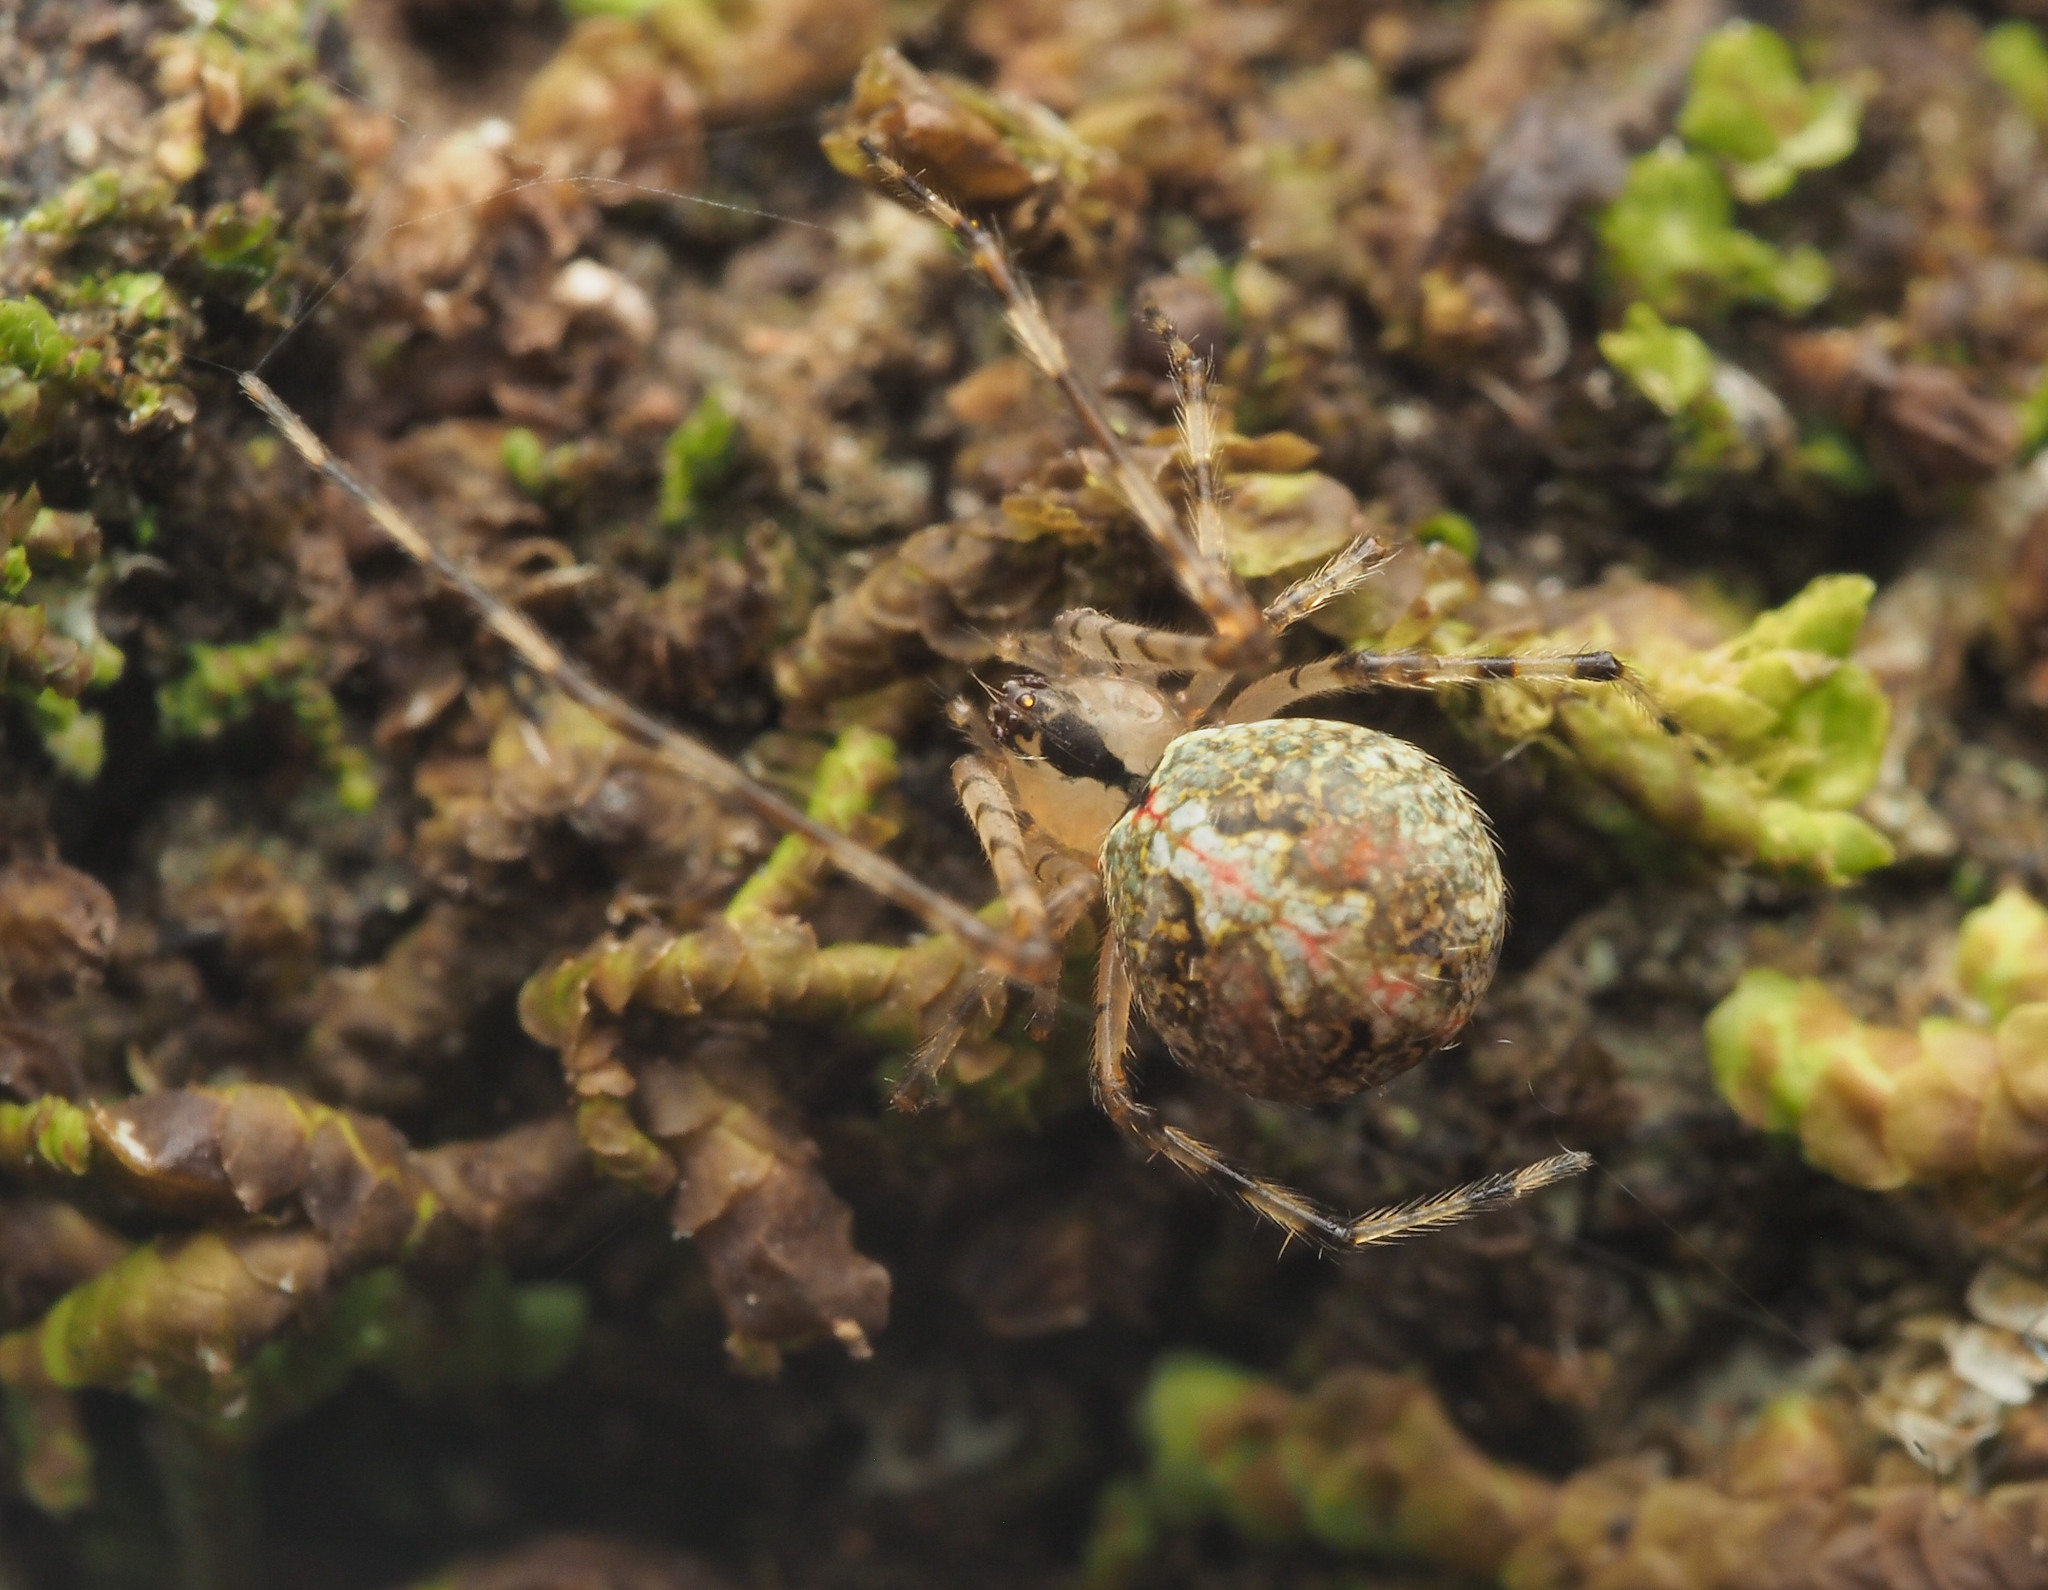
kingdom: Animalia
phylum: Arthropoda
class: Arachnida
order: Araneae
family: Theridiidae
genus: Cryptachaea
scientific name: Cryptachaea
